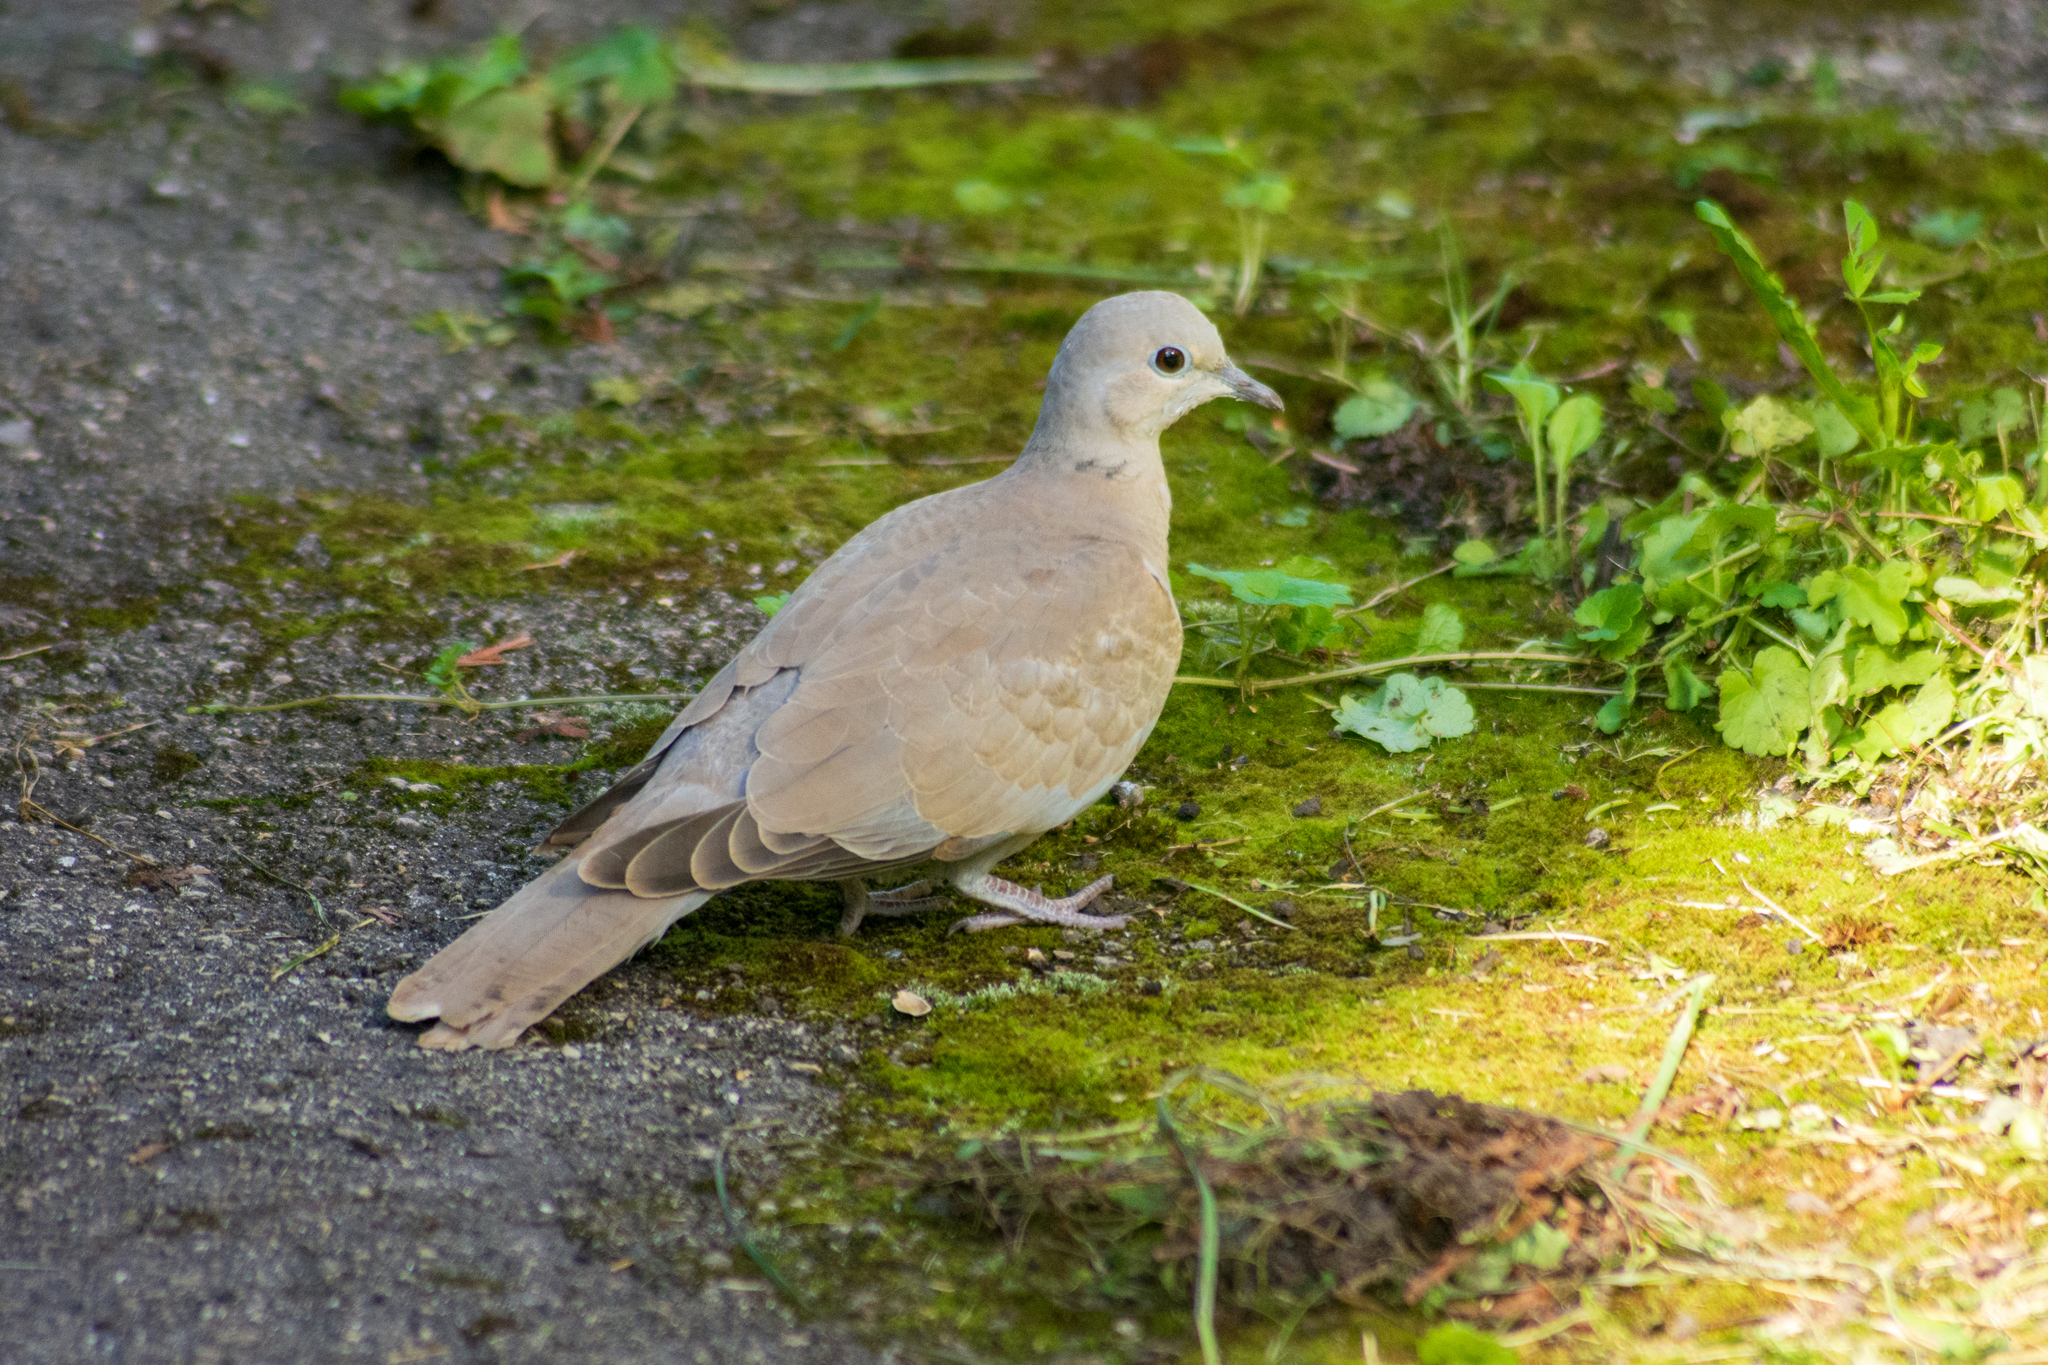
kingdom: Animalia
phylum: Chordata
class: Aves
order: Columbiformes
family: Columbidae
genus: Streptopelia
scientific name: Streptopelia decaocto
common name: Eurasian collared dove
